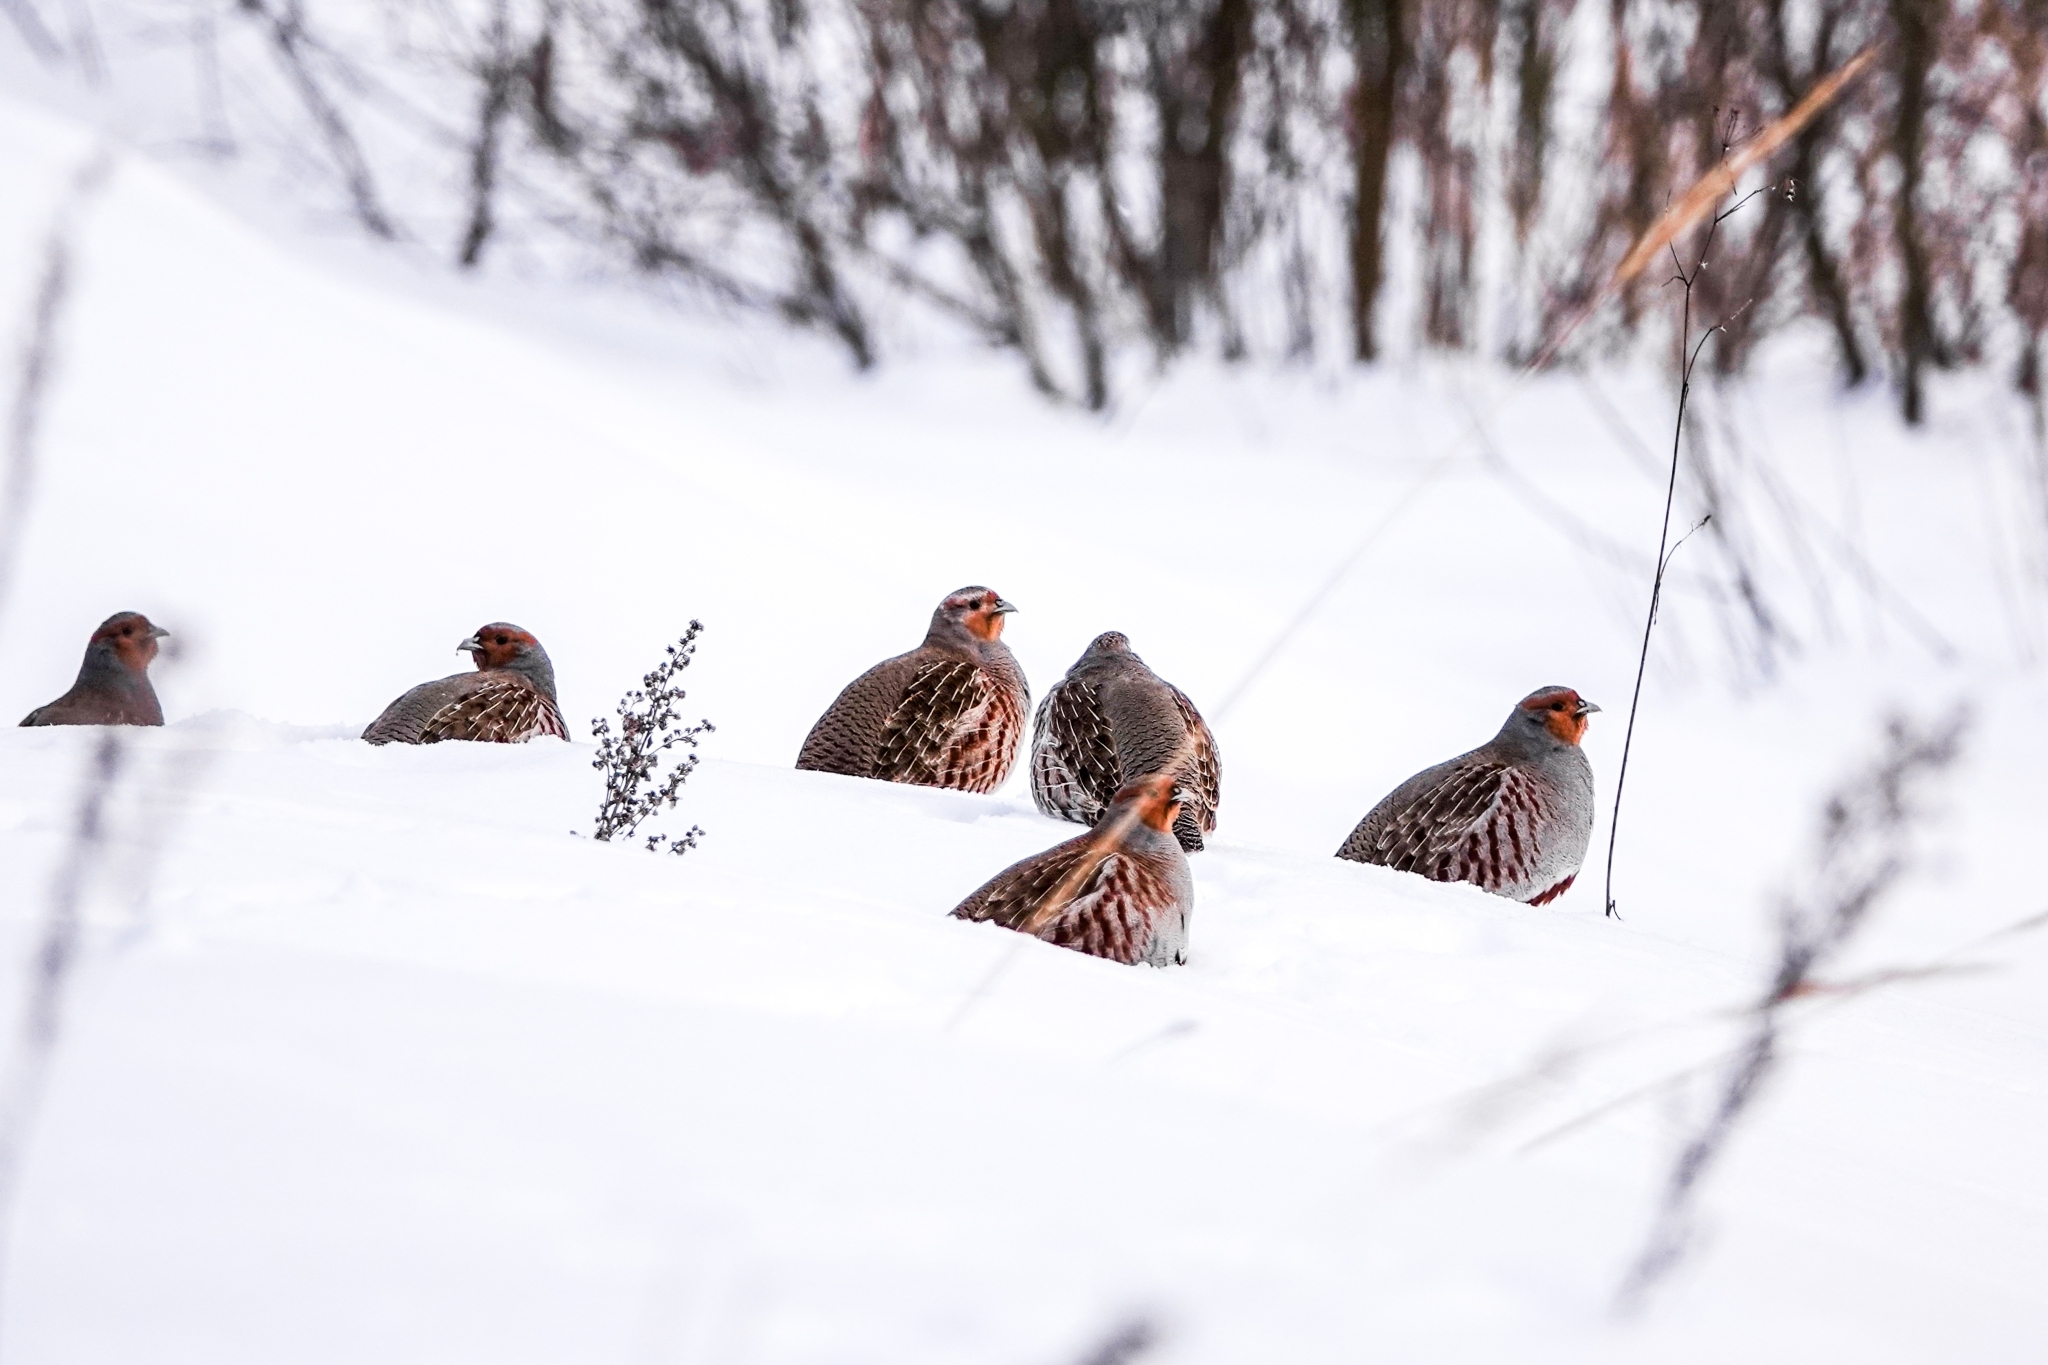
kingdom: Animalia
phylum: Chordata
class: Aves
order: Galliformes
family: Phasianidae
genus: Perdix
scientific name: Perdix perdix
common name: Grey partridge
